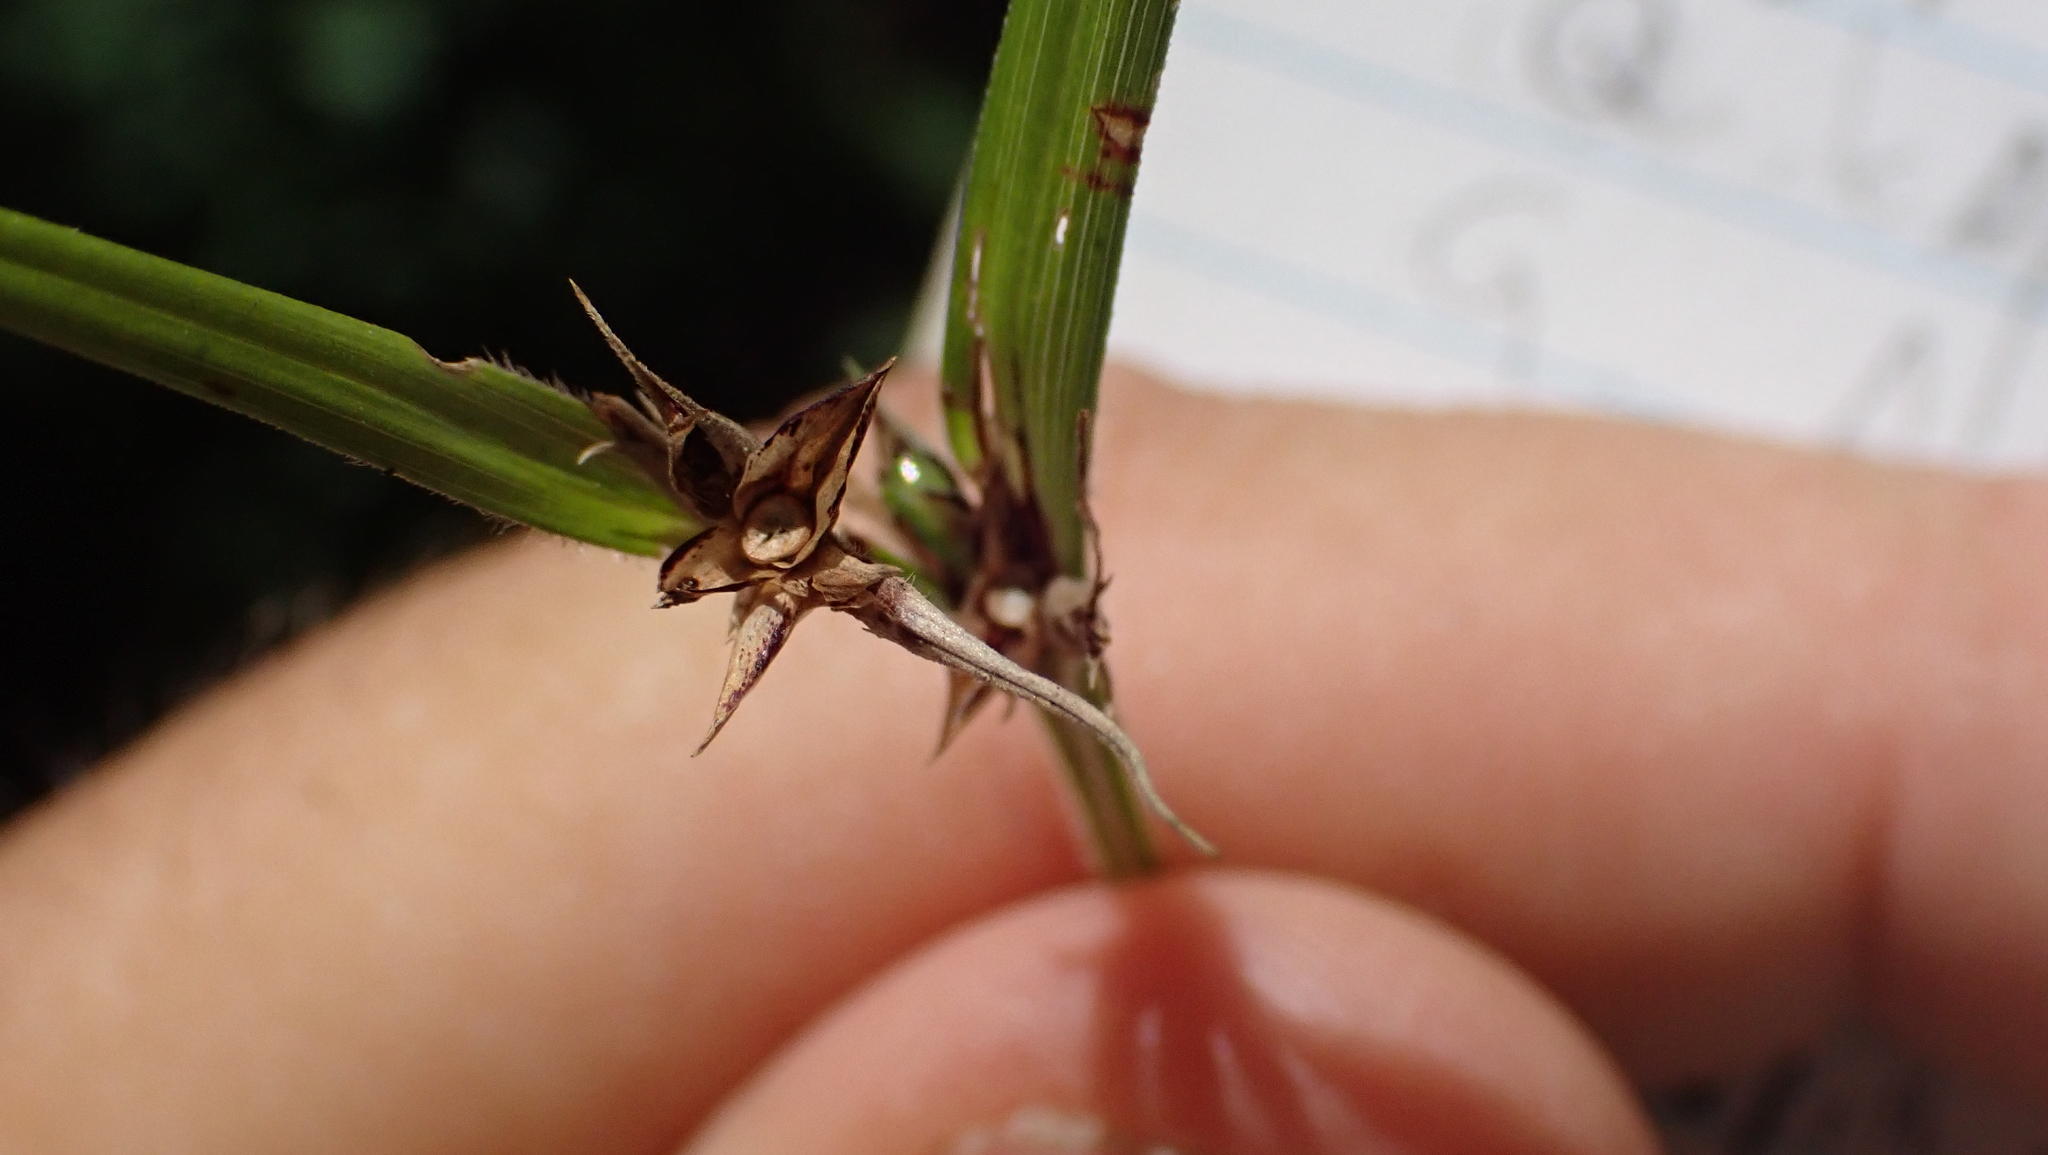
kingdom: Plantae
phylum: Tracheophyta
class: Liliopsida
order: Poales
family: Cyperaceae
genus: Scleria
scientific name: Scleria
